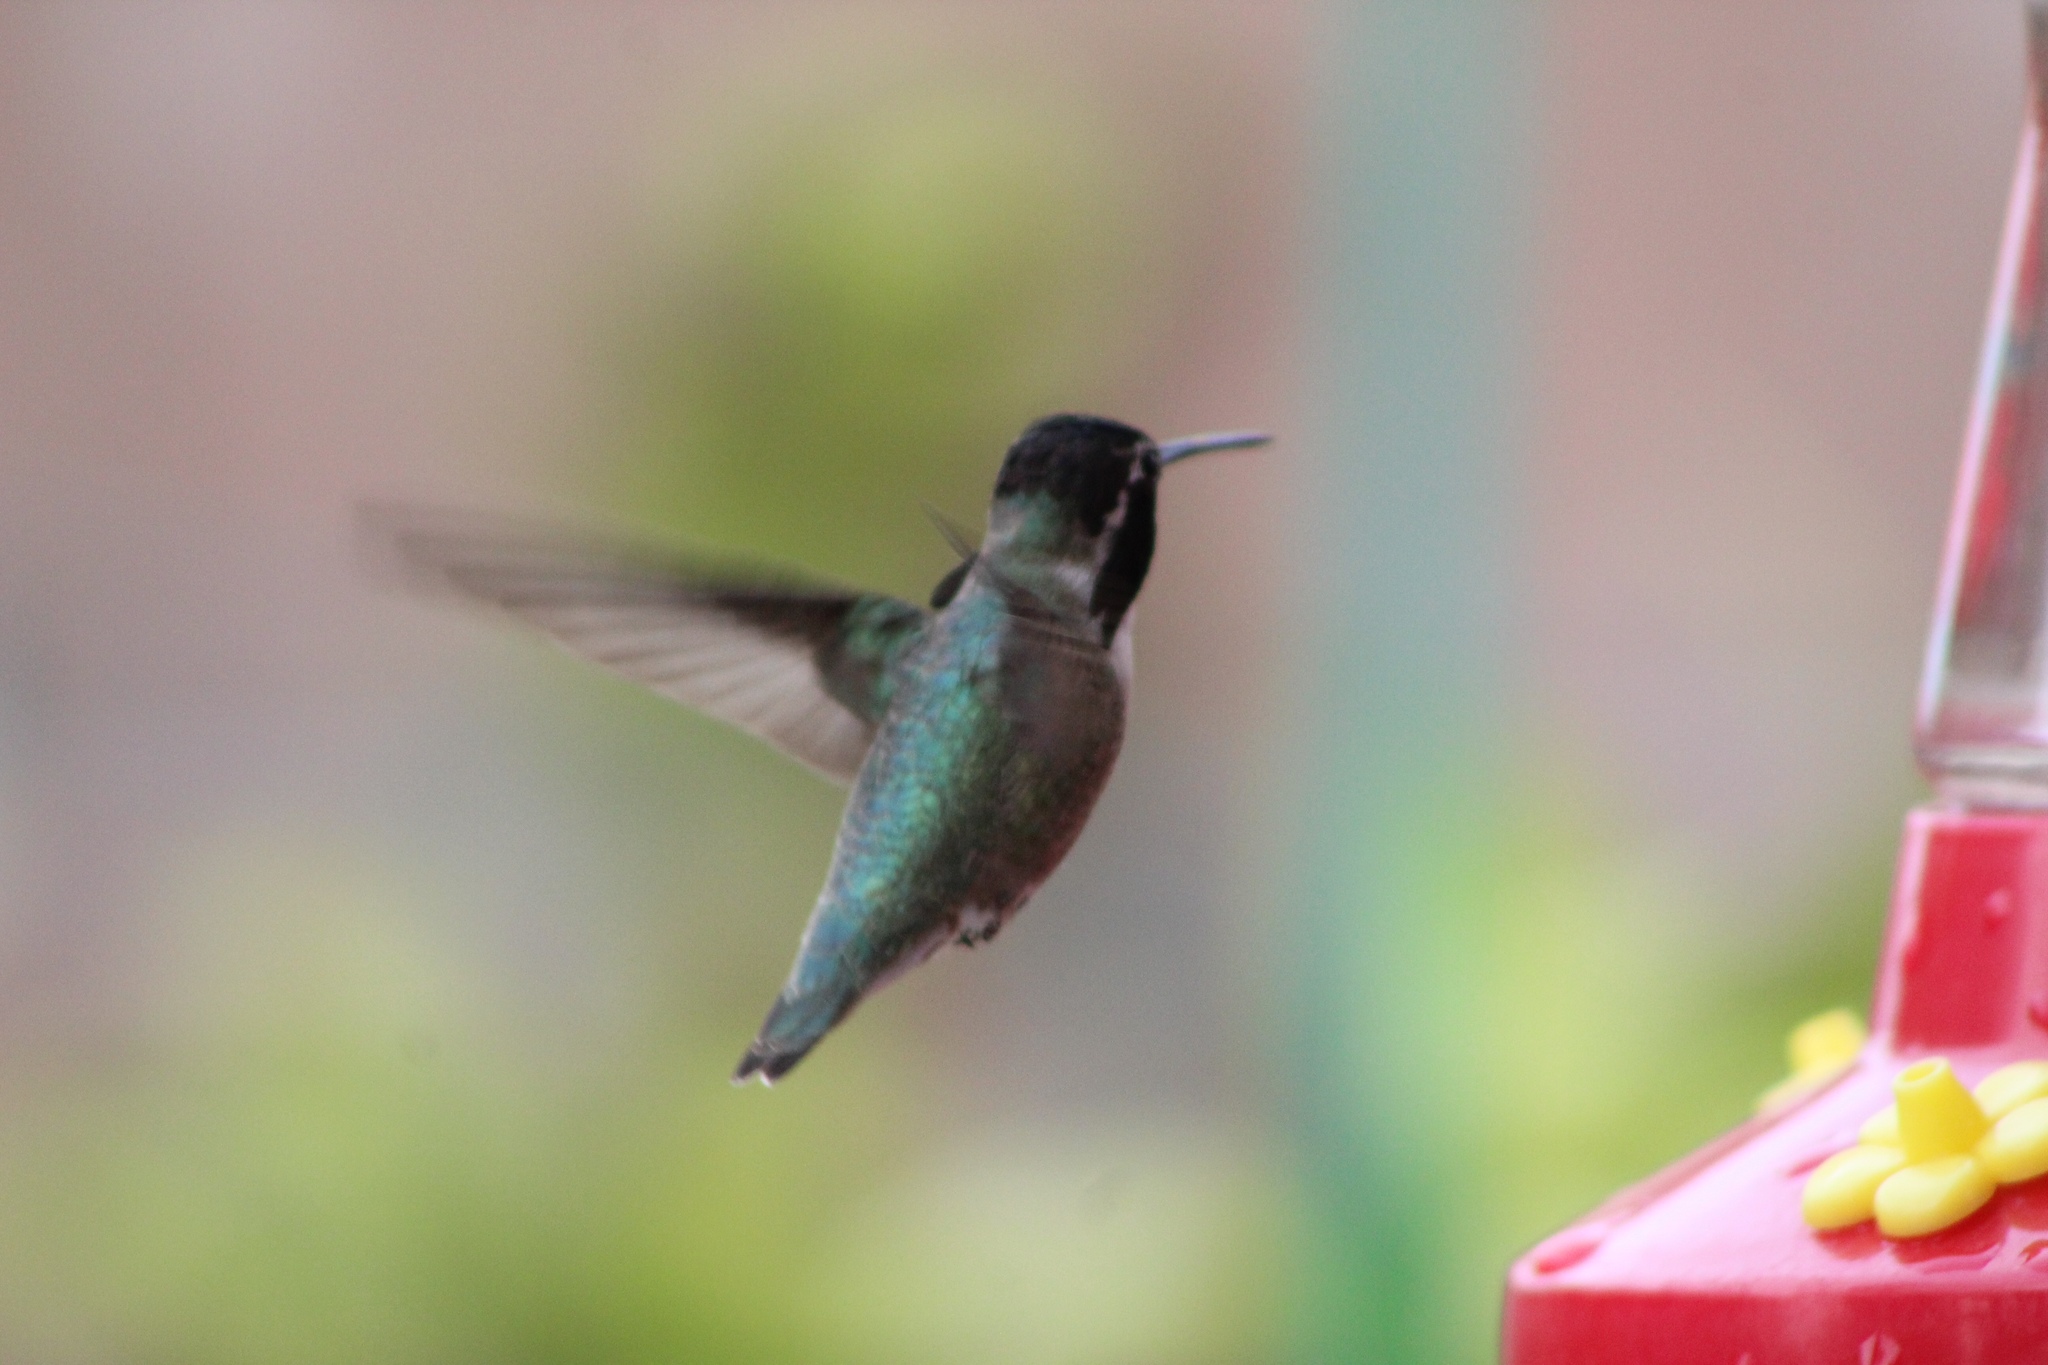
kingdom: Animalia
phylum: Chordata
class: Aves
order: Apodiformes
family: Trochilidae
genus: Calypte
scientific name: Calypte costae
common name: Costa's hummingbird
